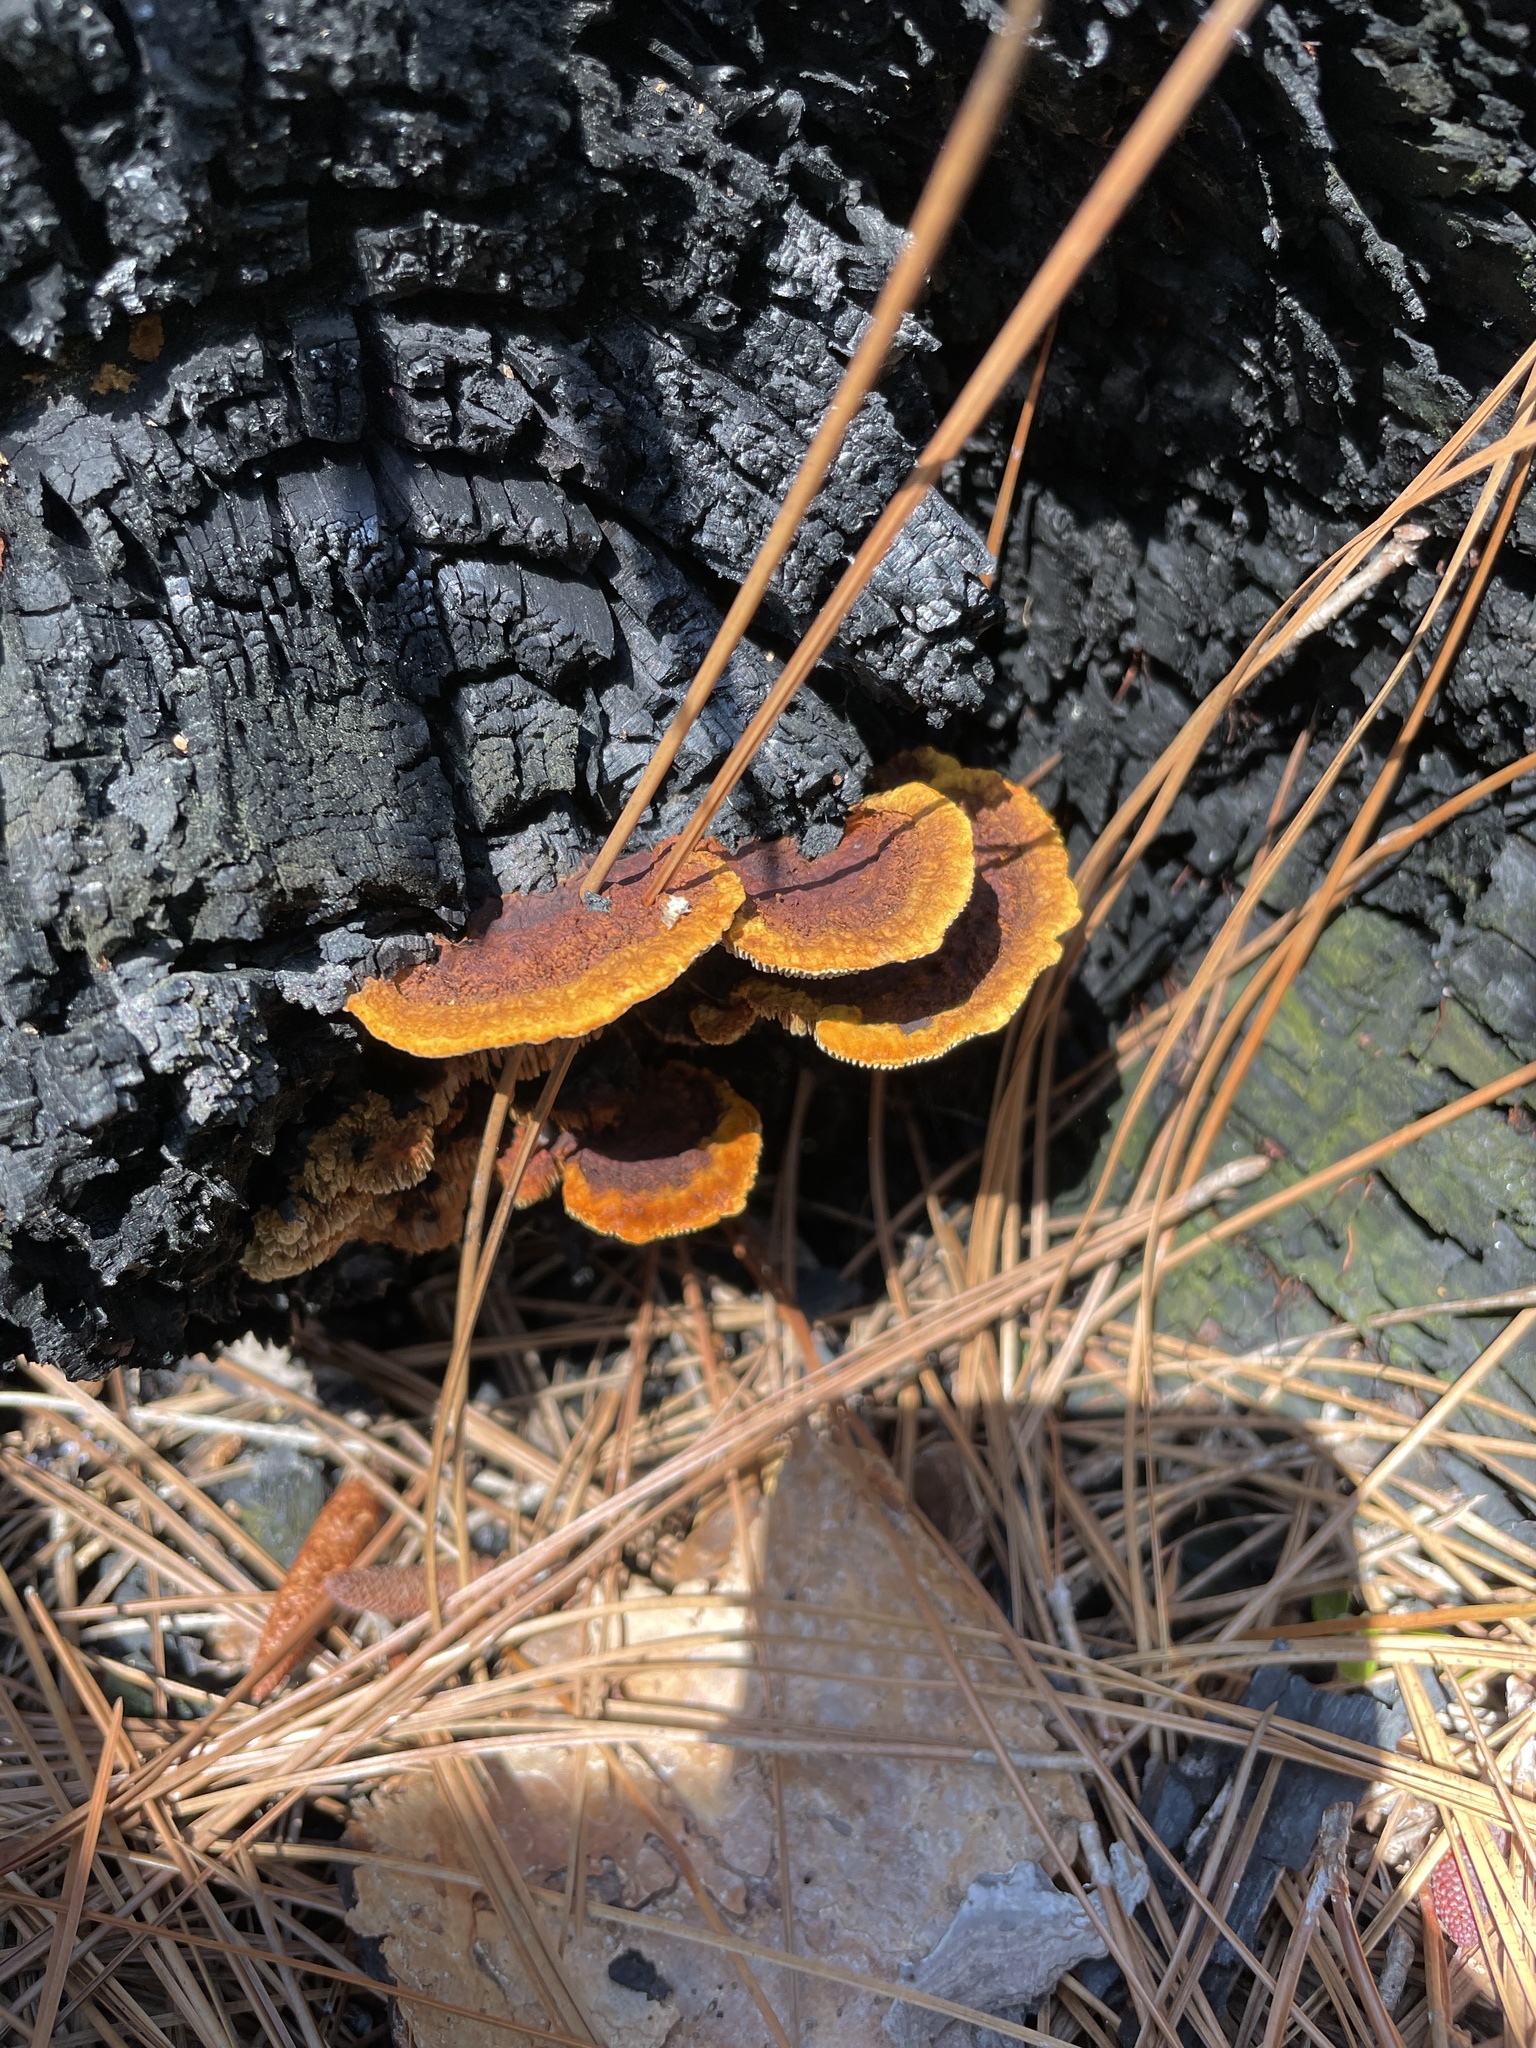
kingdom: Fungi
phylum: Basidiomycota
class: Agaricomycetes
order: Gloeophyllales
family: Gloeophyllaceae
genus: Gloeophyllum
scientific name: Gloeophyllum sepiarium
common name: Conifer mazegill
